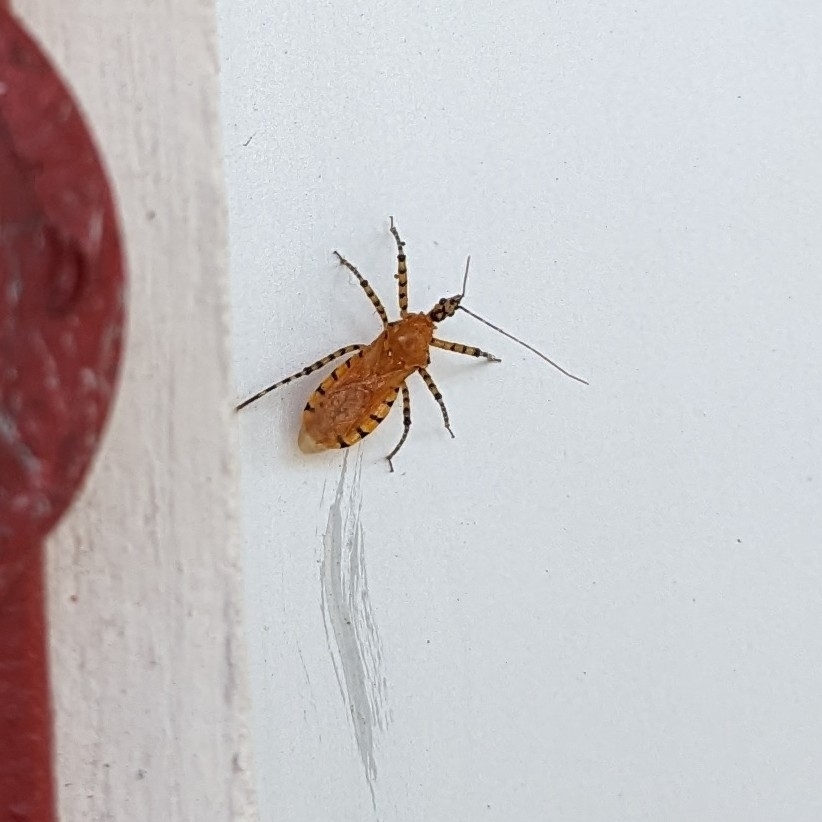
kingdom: Animalia
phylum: Arthropoda
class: Insecta
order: Hemiptera
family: Reduviidae
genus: Pselliopus
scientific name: Pselliopus barberi
